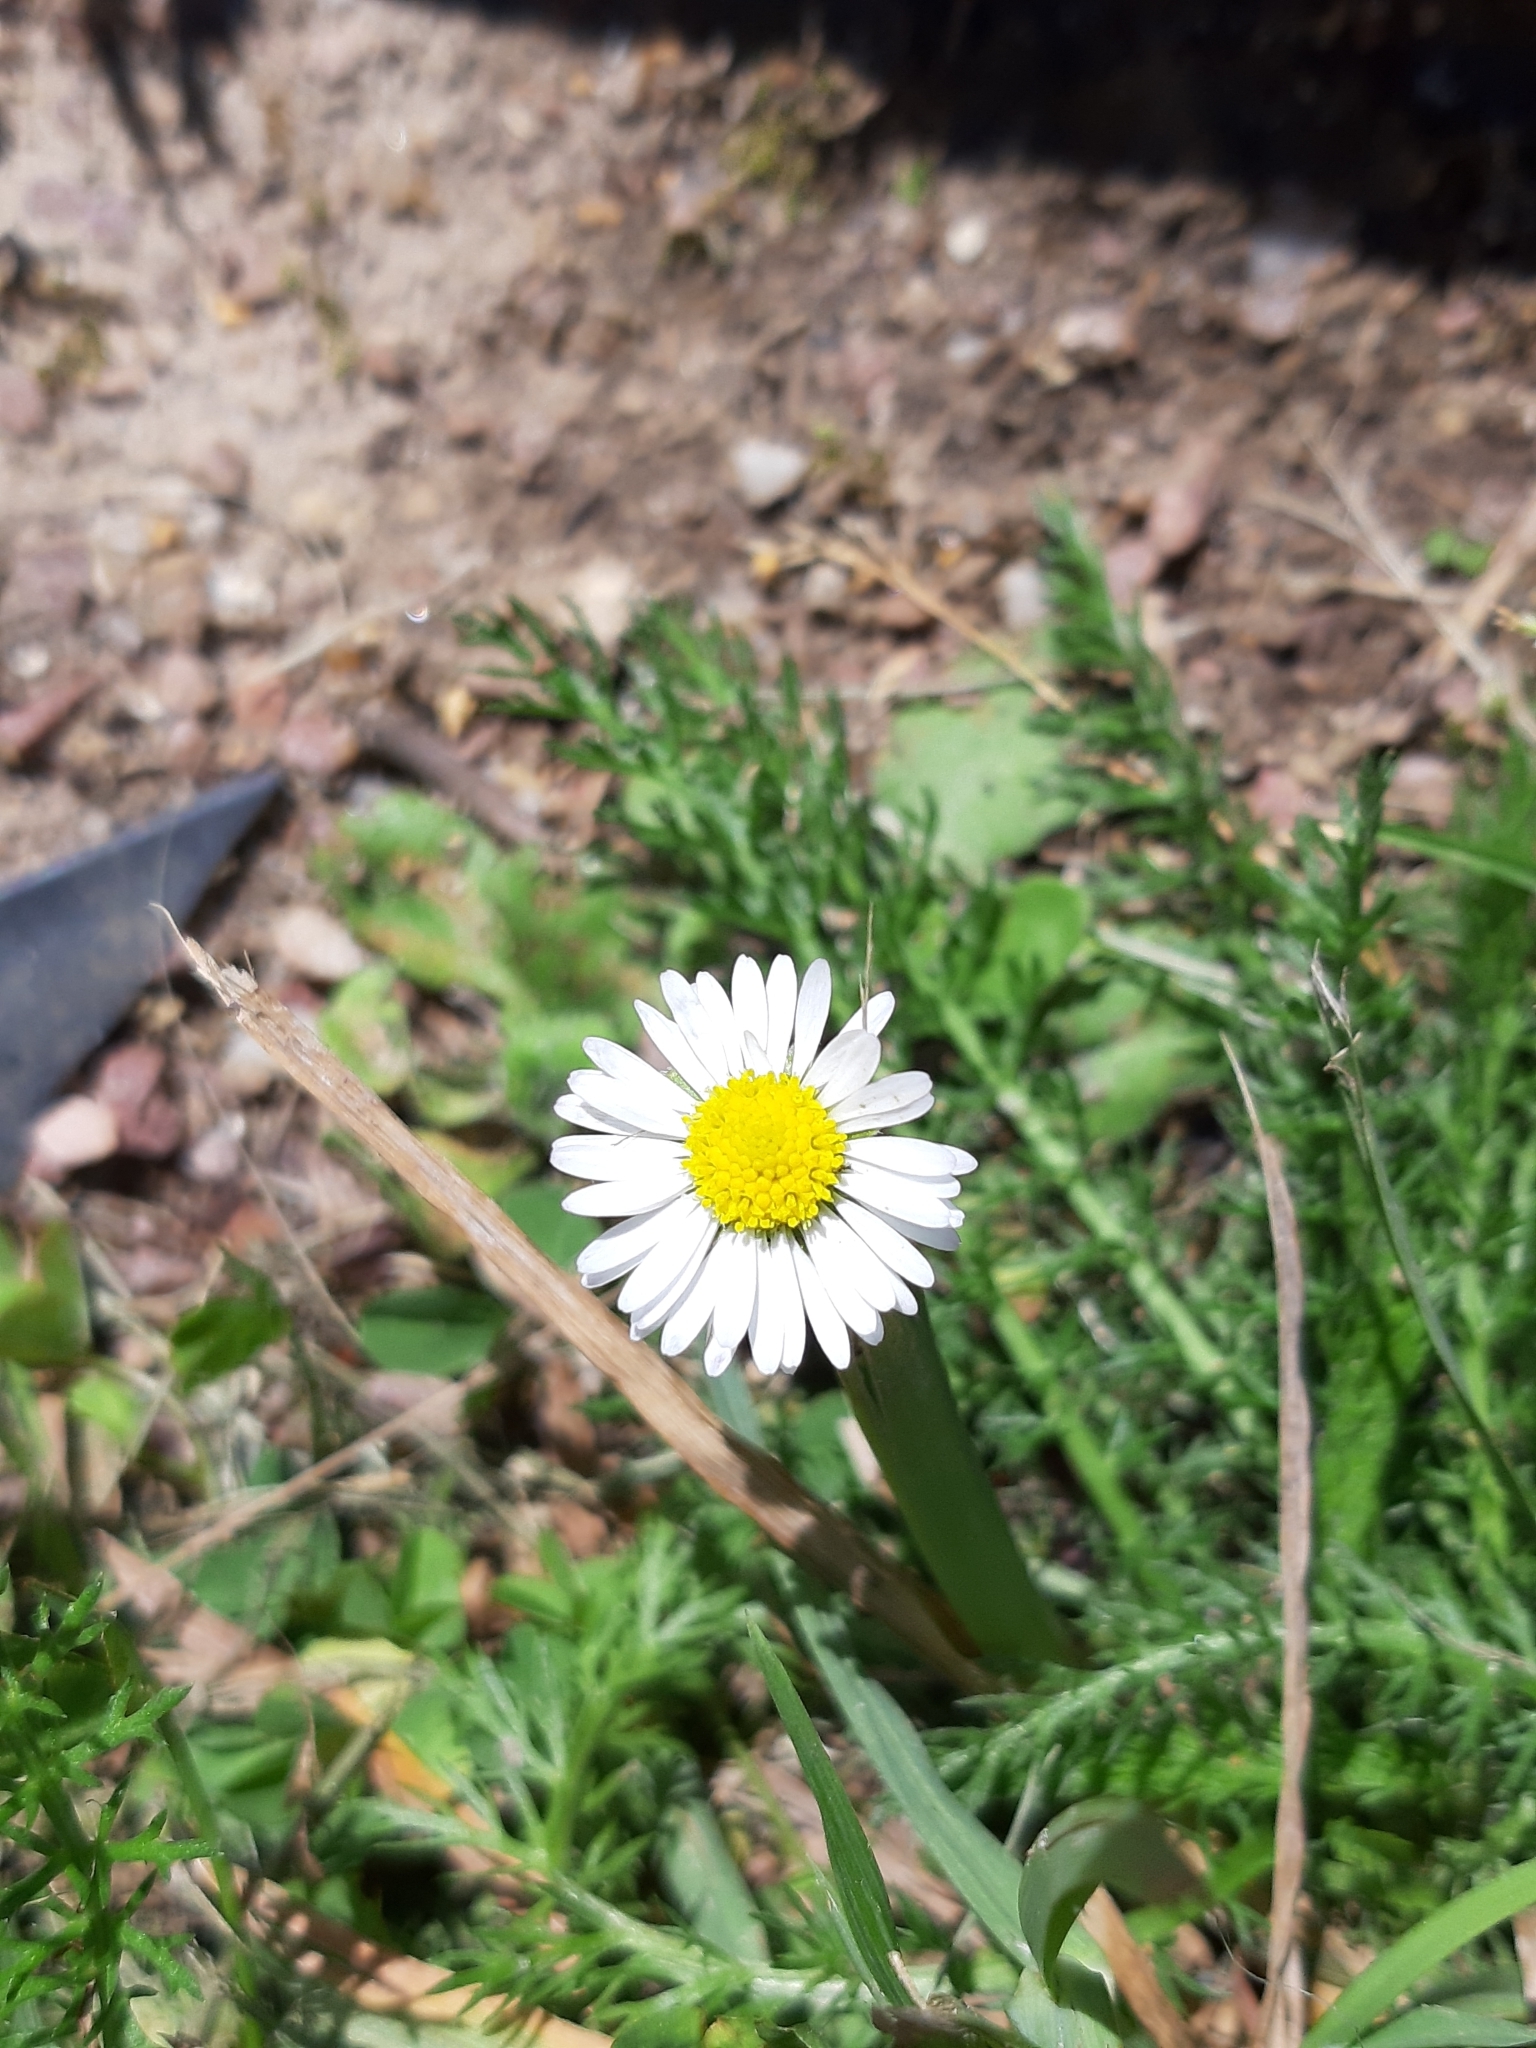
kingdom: Plantae
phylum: Tracheophyta
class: Magnoliopsida
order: Asterales
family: Asteraceae
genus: Bellis
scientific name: Bellis perennis
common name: Lawndaisy
